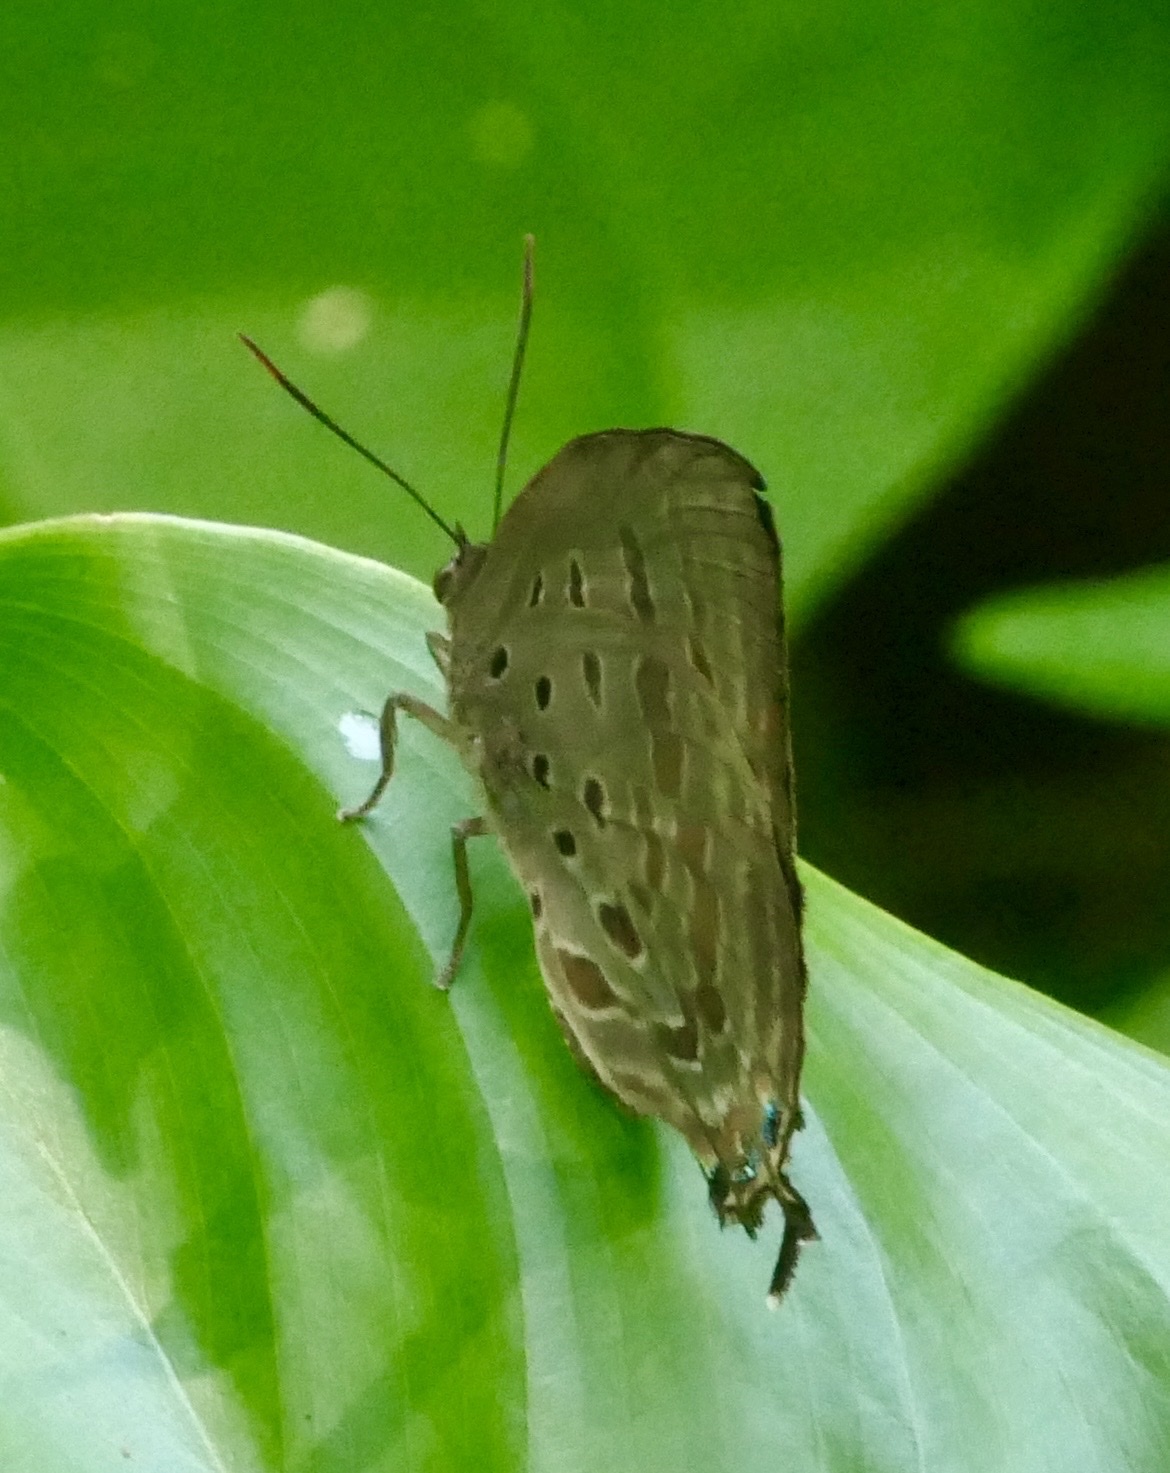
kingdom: Animalia
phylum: Arthropoda
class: Insecta
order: Lepidoptera
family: Lycaenidae
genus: Arhopala
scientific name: Arhopala meander
